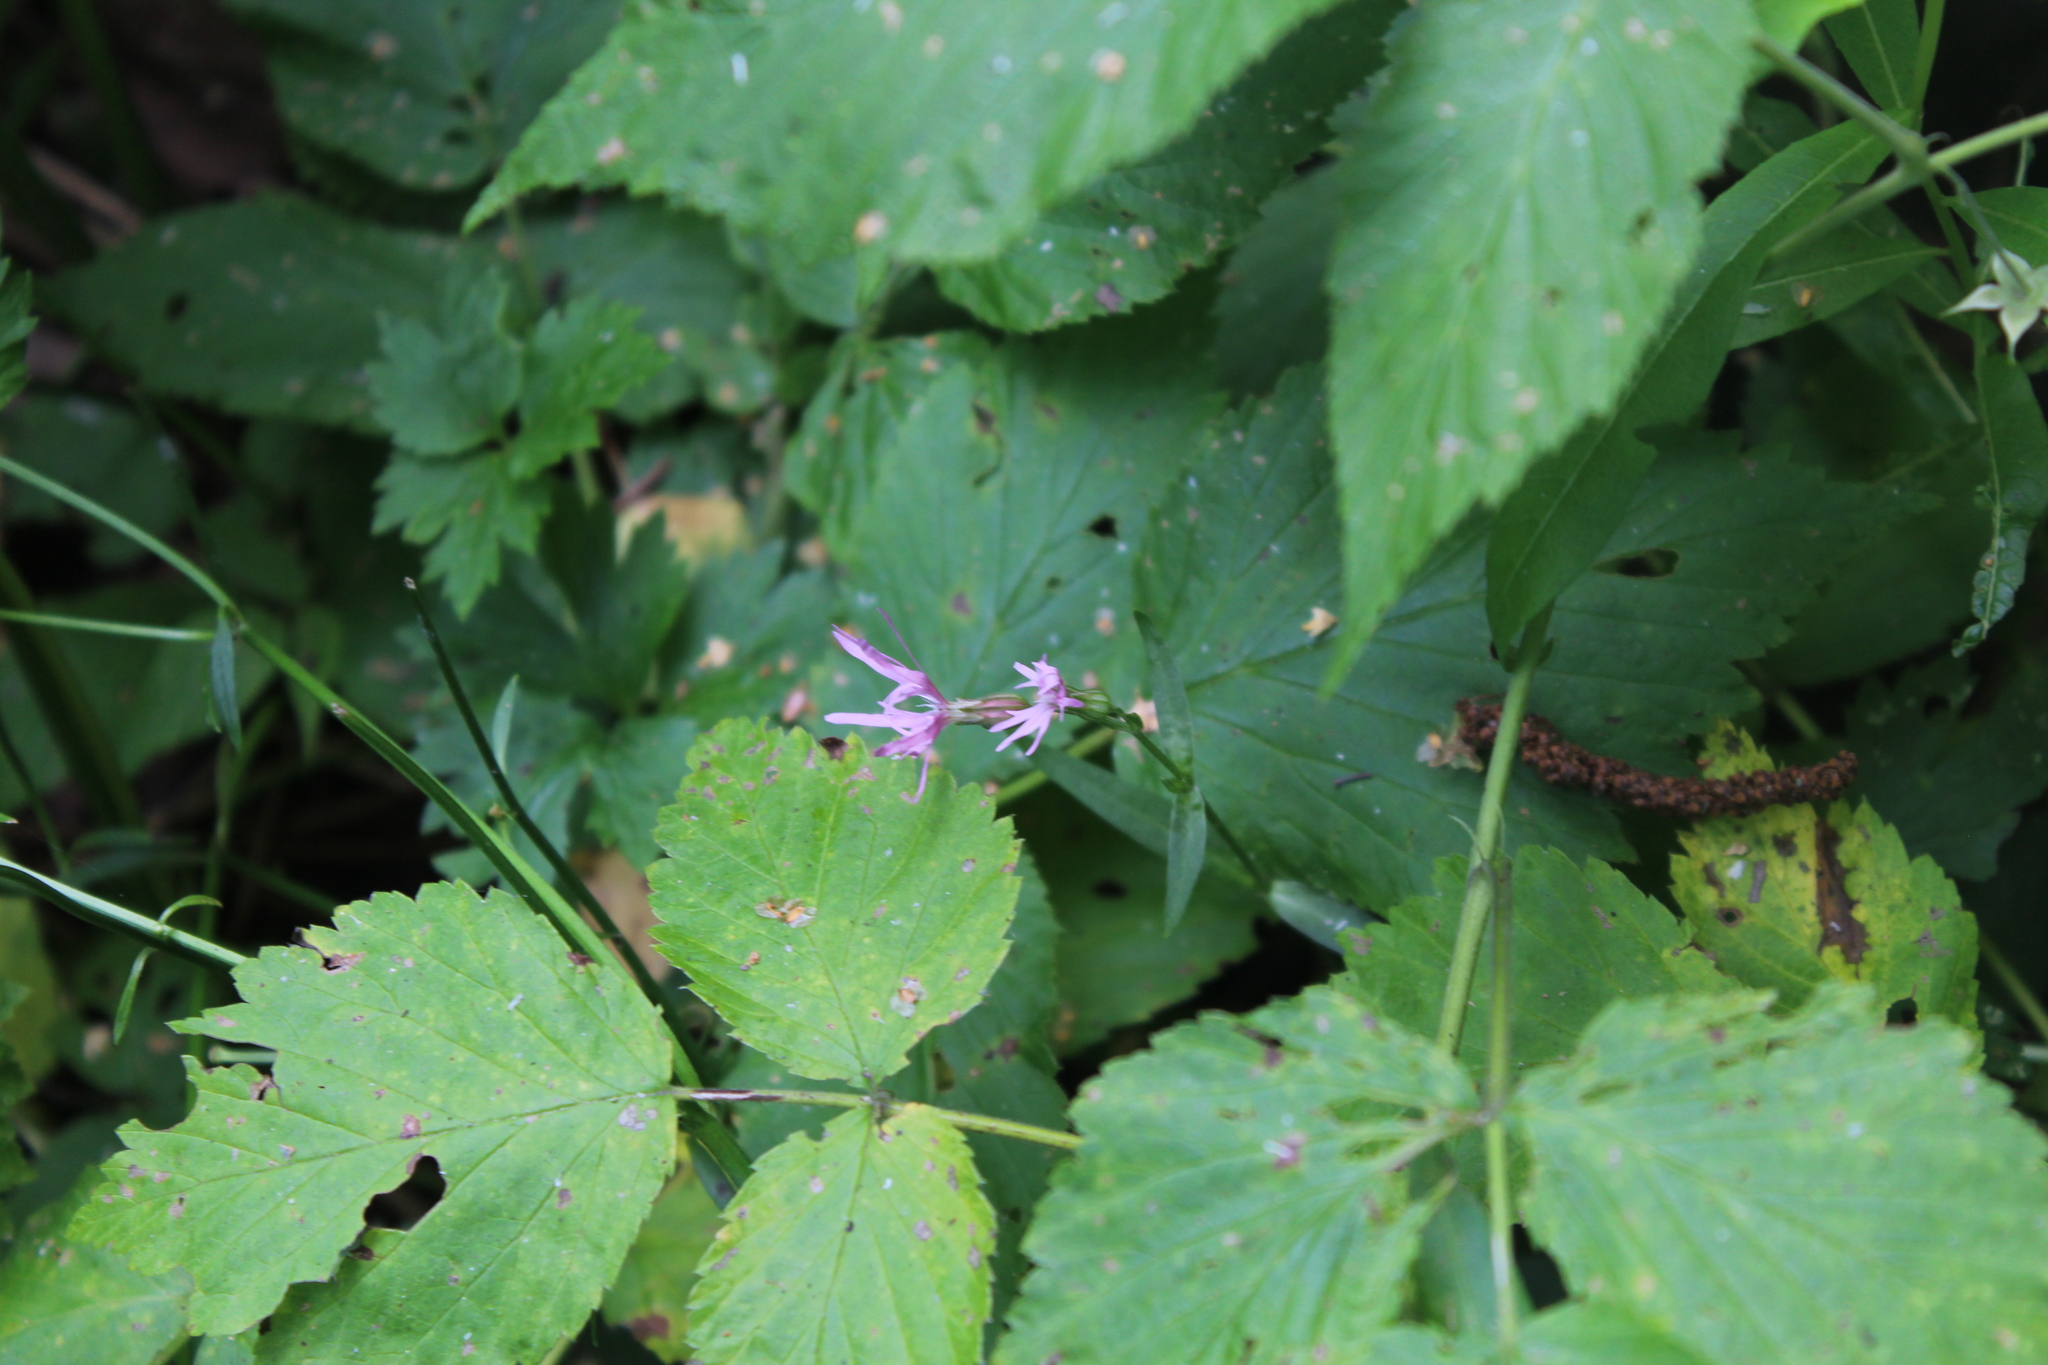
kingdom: Plantae
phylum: Tracheophyta
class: Magnoliopsida
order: Caryophyllales
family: Caryophyllaceae
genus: Silene
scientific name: Silene flos-cuculi
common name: Ragged-robin
